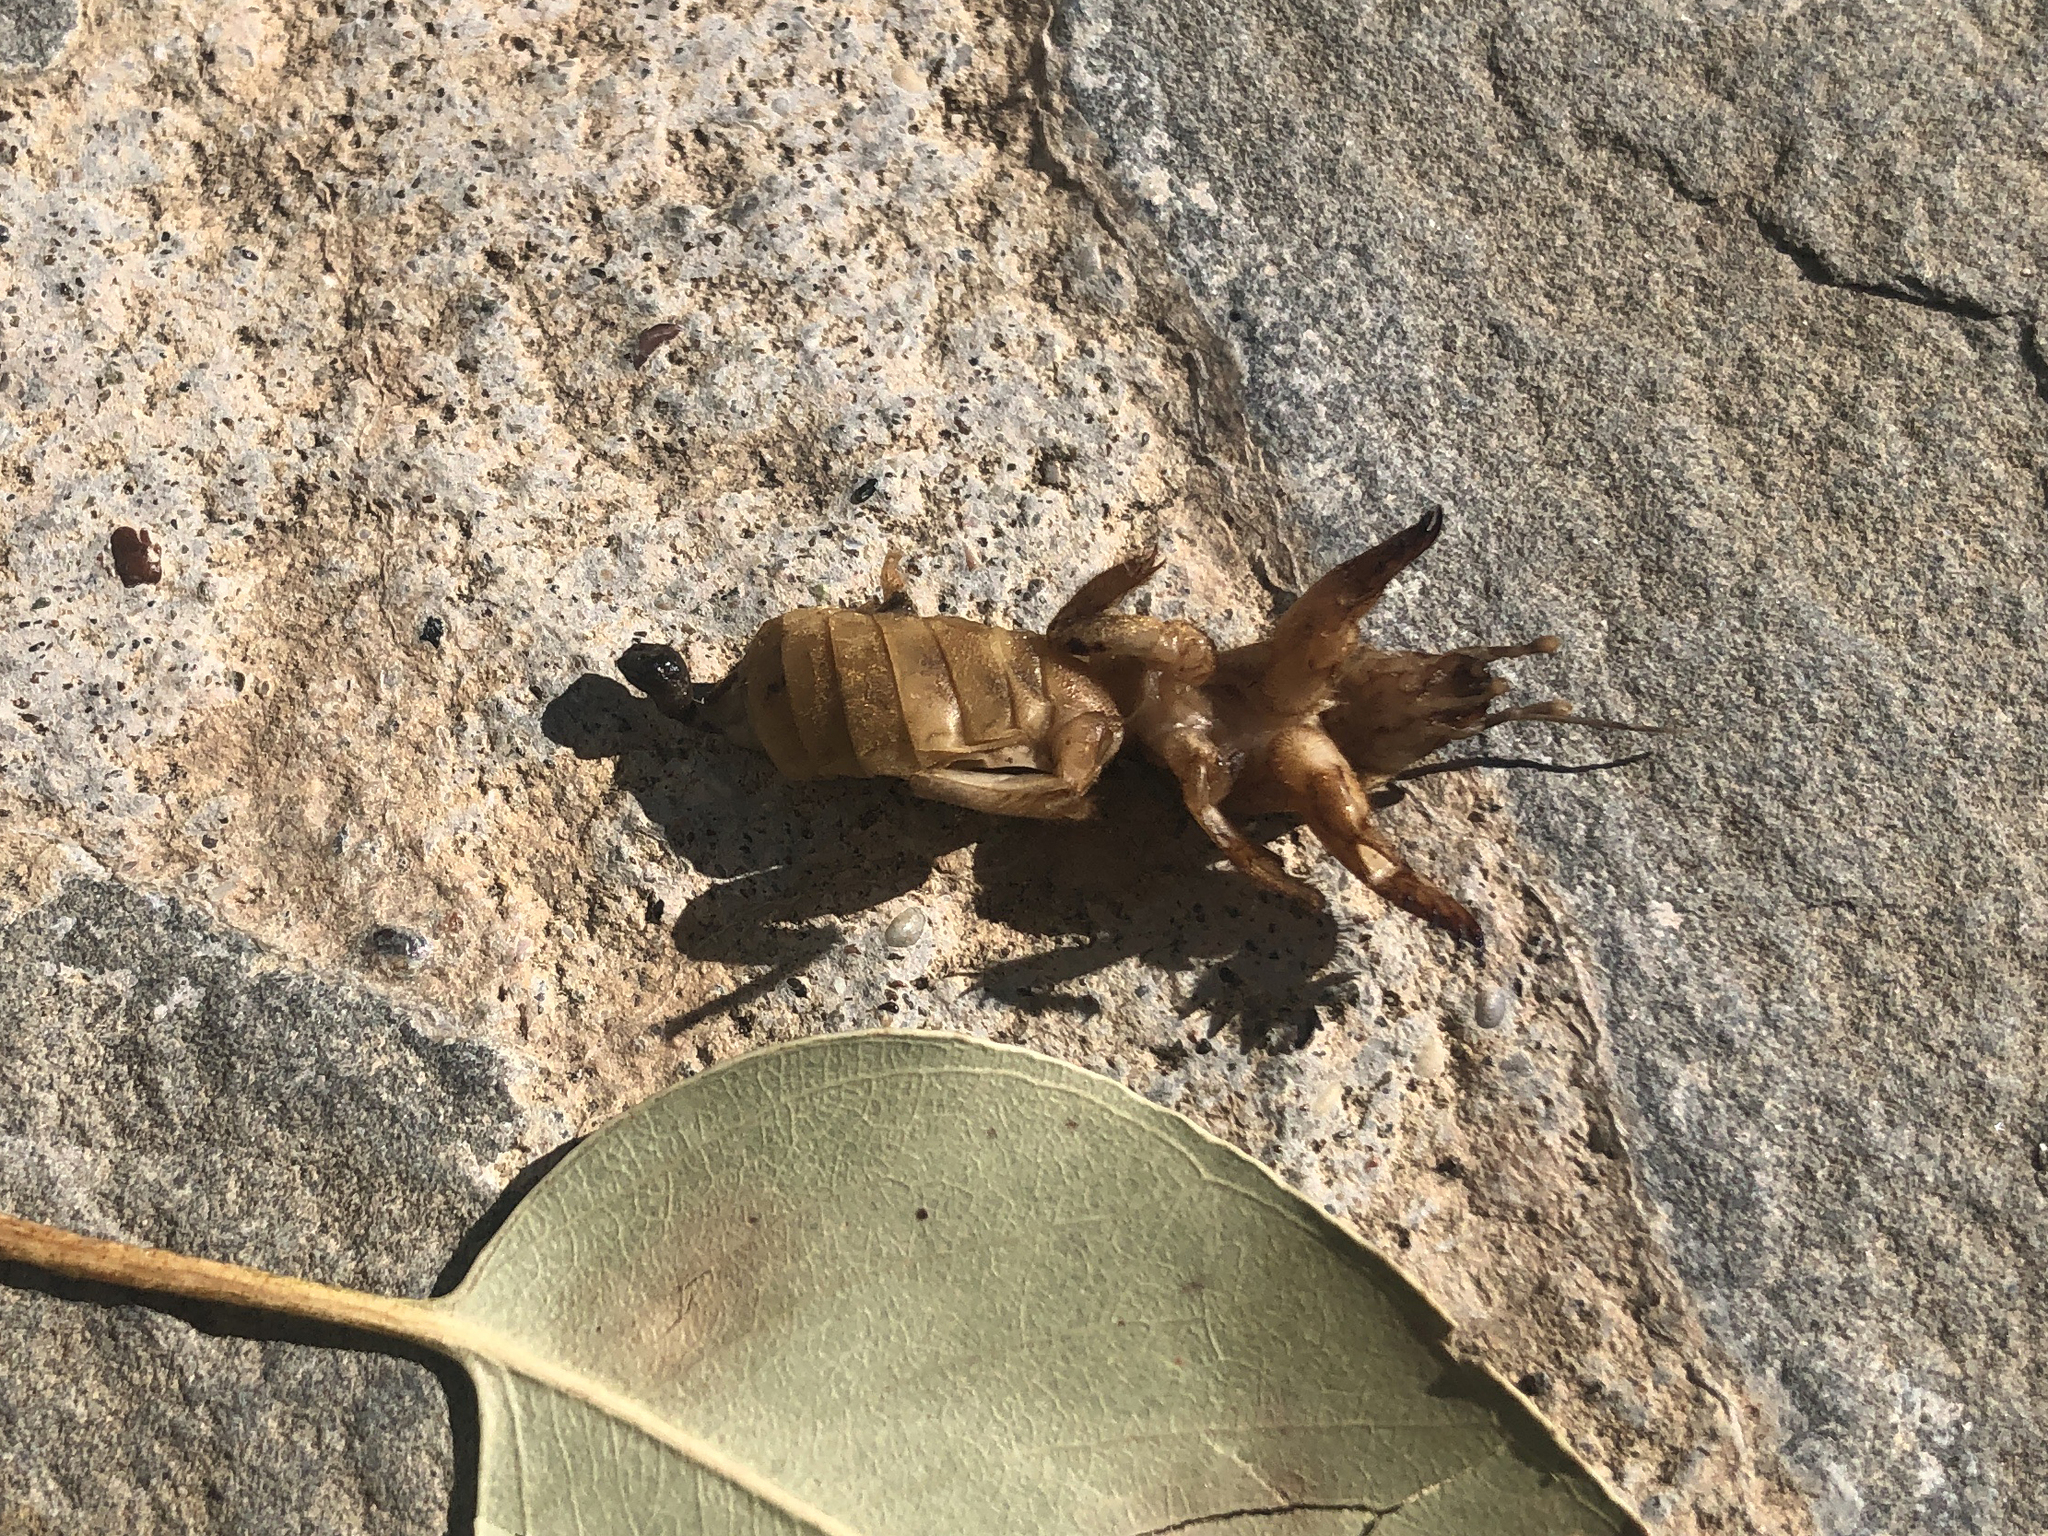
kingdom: Animalia
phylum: Arthropoda
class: Insecta
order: Orthoptera
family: Gryllotalpidae
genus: Gryllotalpa
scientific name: Gryllotalpa krimbasi
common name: Krimbas' mole-cricket
